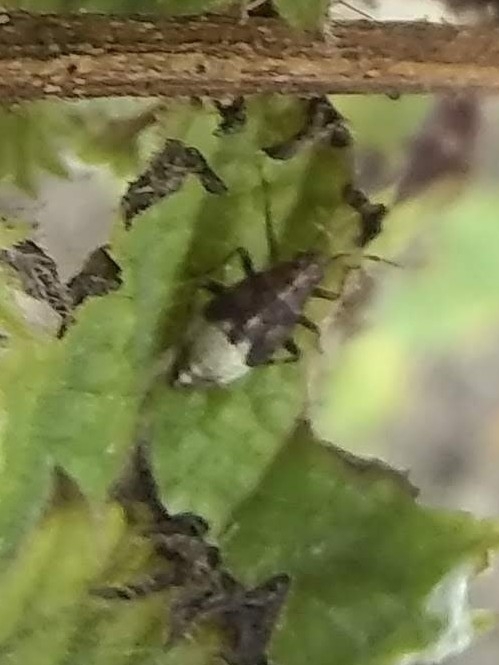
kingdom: Animalia
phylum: Arthropoda
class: Insecta
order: Hemiptera
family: Miridae
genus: Deraeocoris
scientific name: Deraeocoris flavilinea
